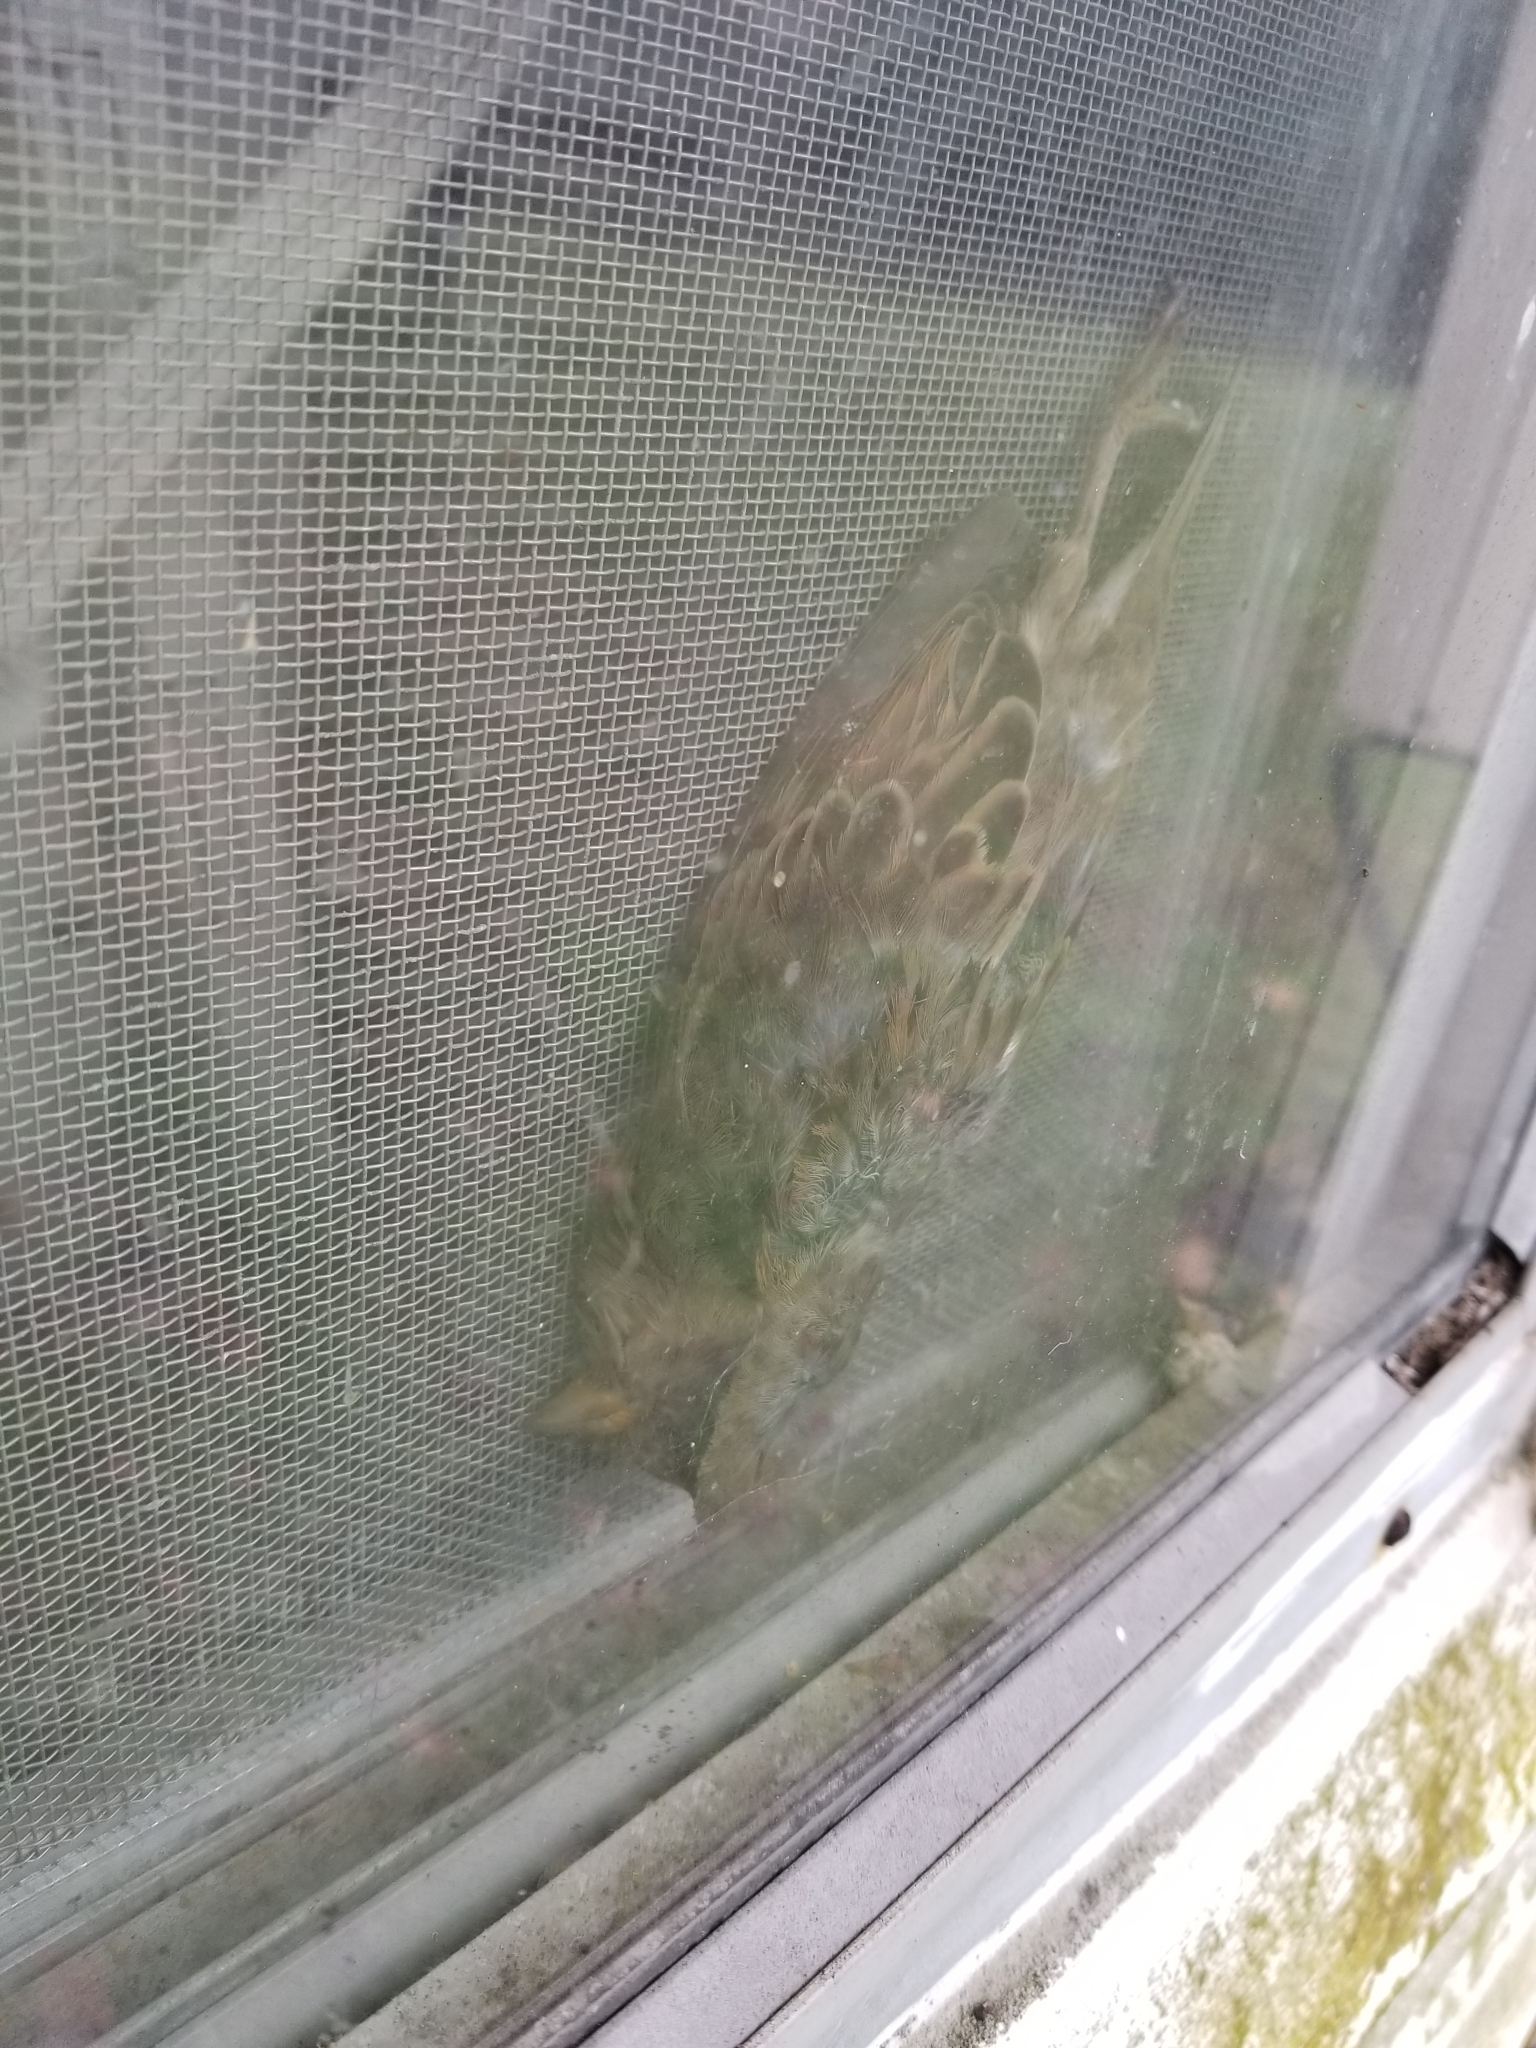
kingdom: Animalia
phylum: Chordata
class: Aves
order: Passeriformes
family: Passeridae
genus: Passer
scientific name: Passer domesticus
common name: House sparrow
